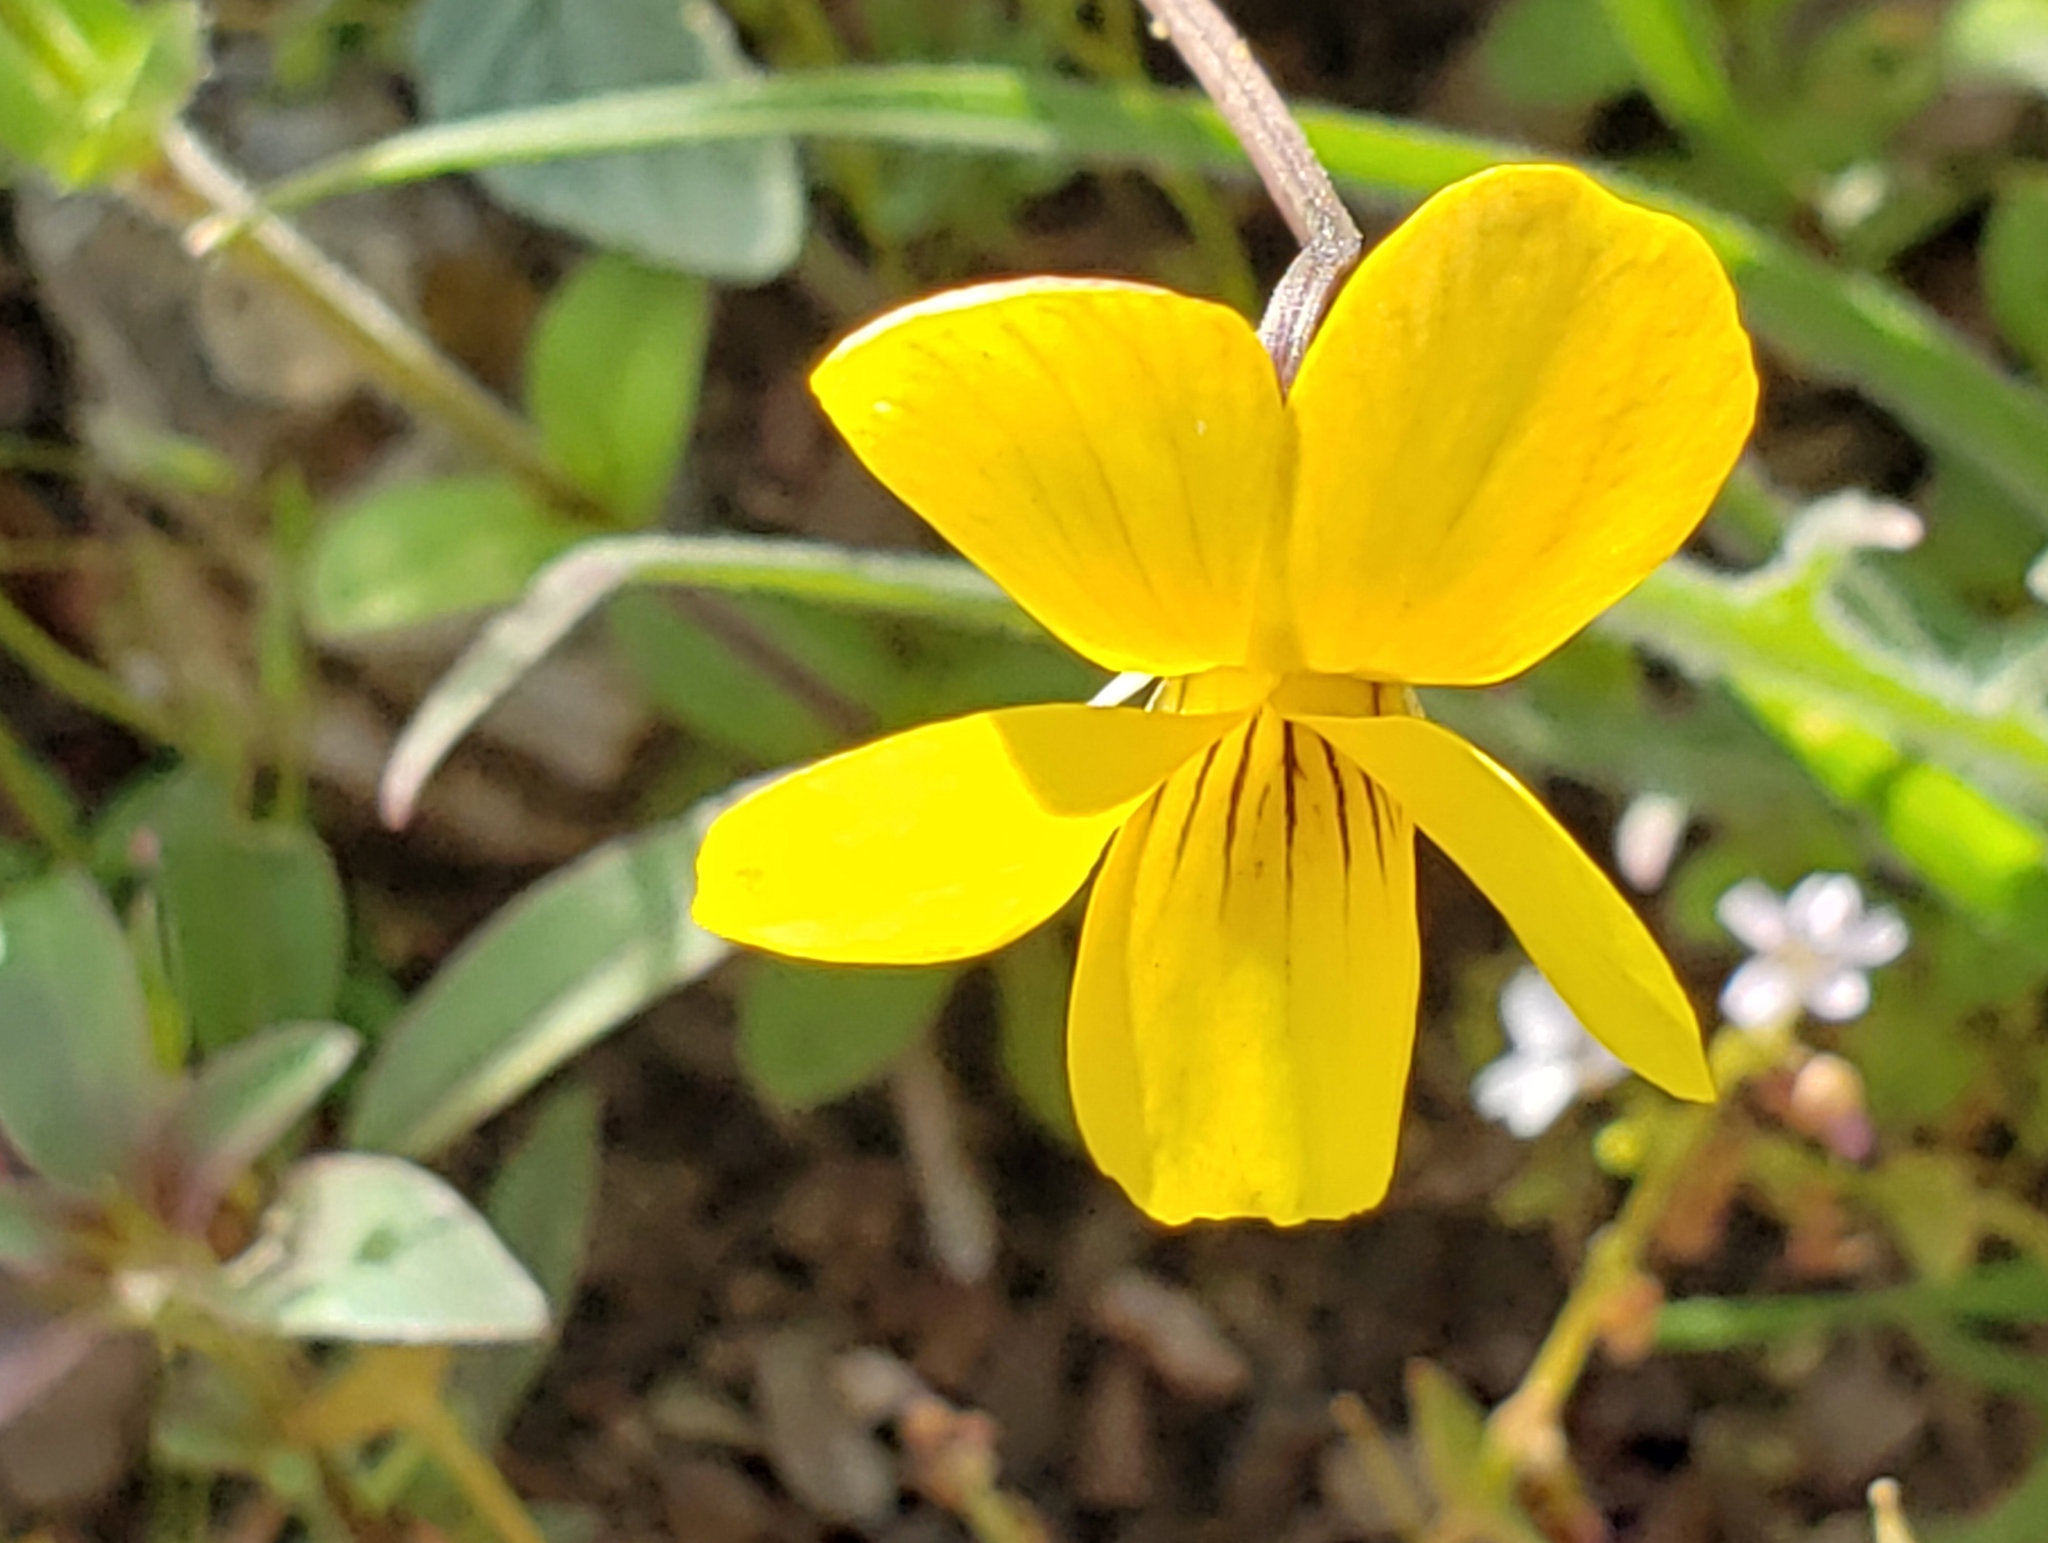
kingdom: Plantae
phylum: Tracheophyta
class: Magnoliopsida
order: Malpighiales
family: Violaceae
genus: Viola
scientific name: Viola purpurea
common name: Pine violet
